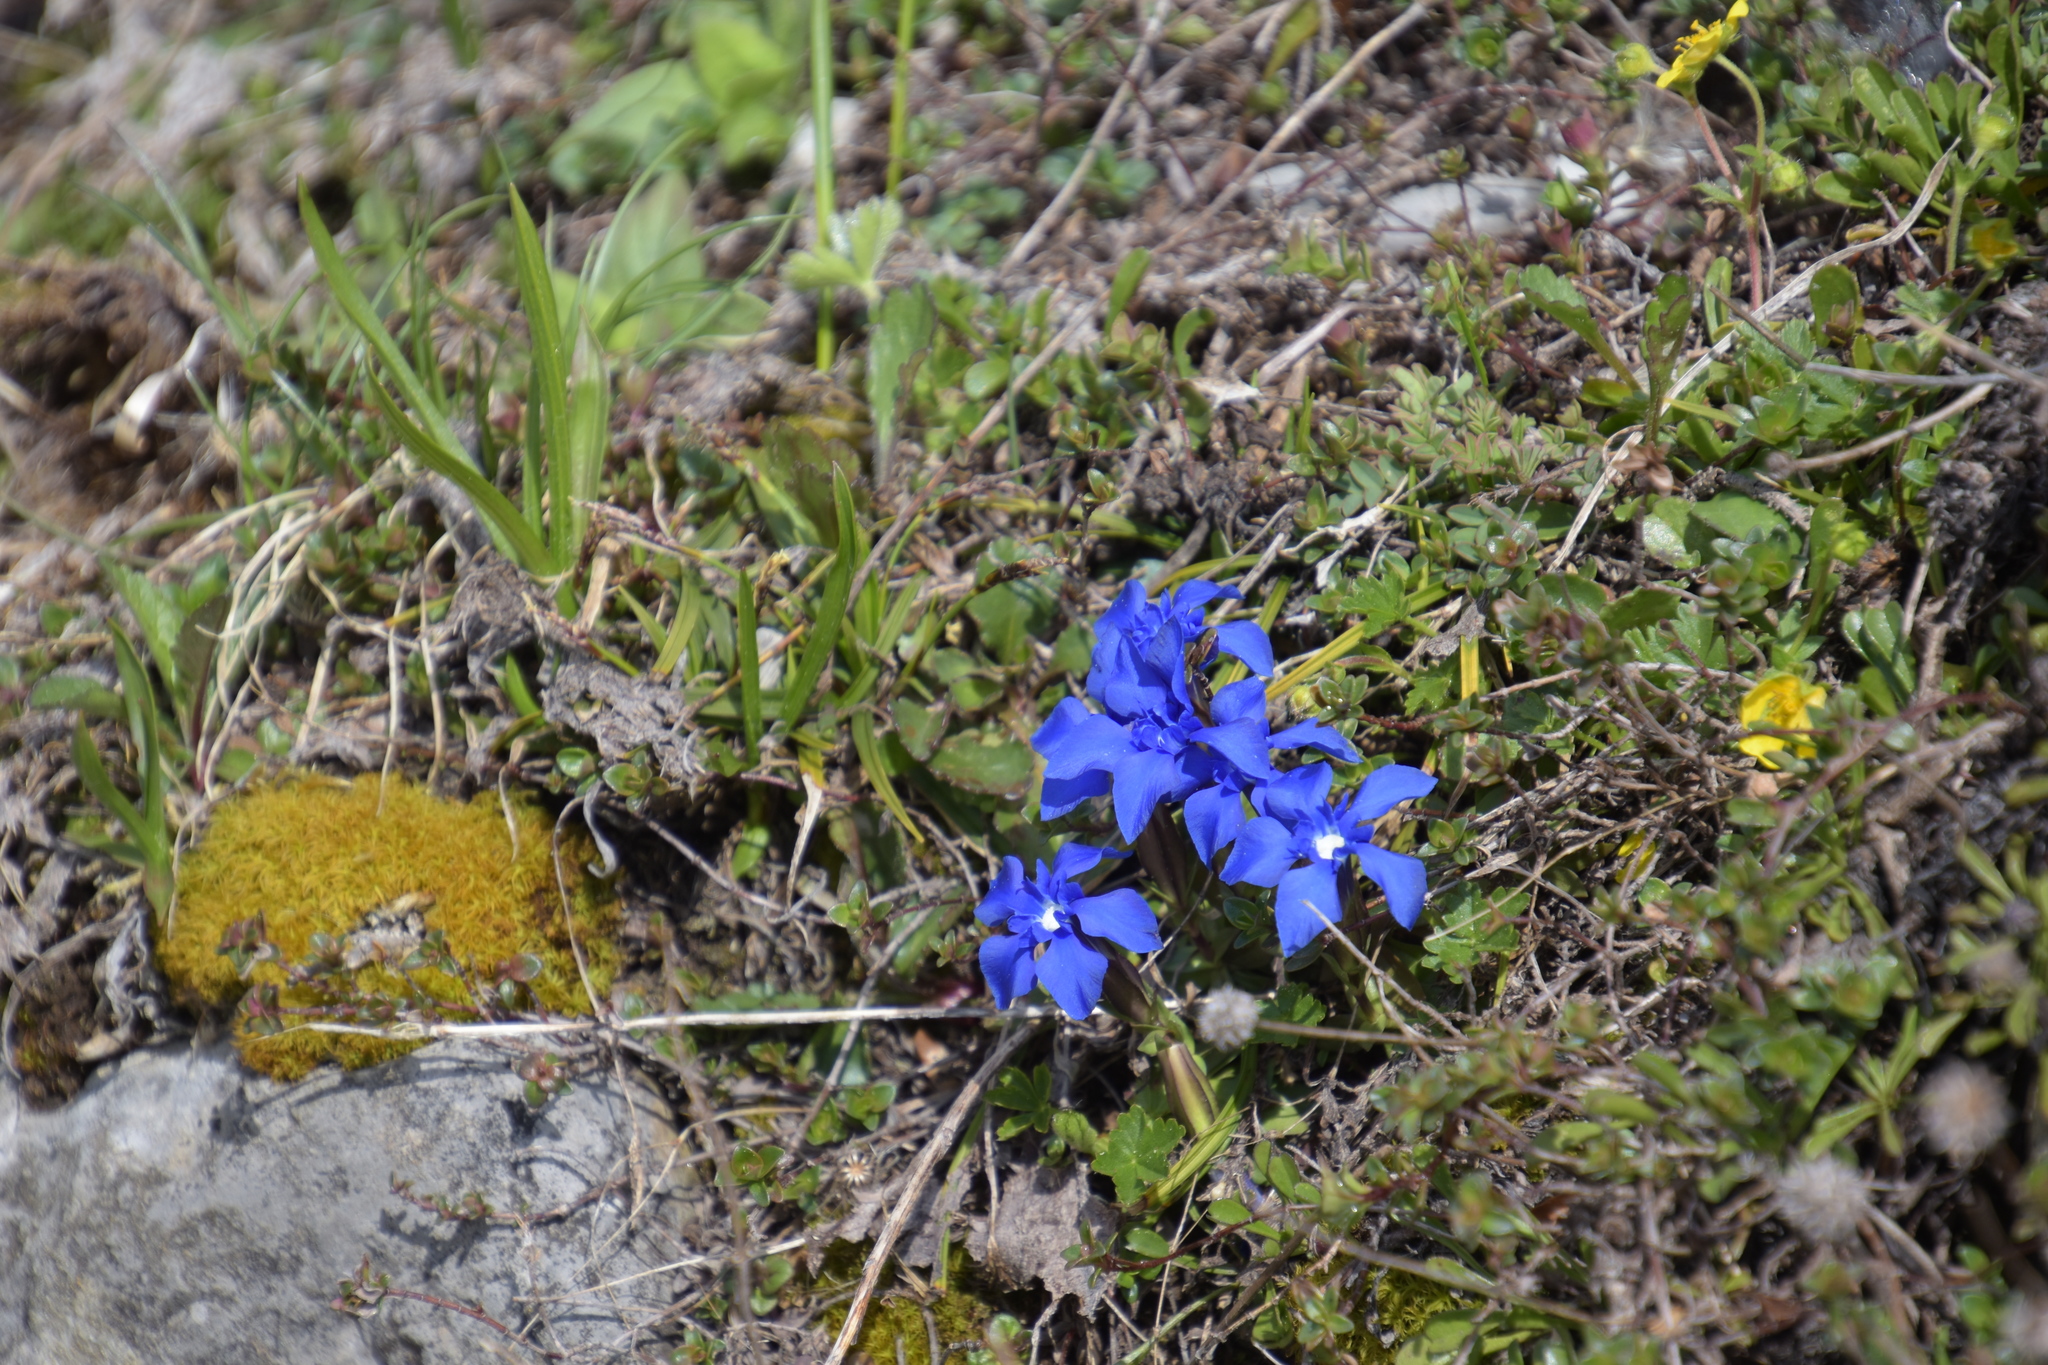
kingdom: Plantae
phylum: Tracheophyta
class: Magnoliopsida
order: Gentianales
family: Gentianaceae
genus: Gentiana
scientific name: Gentiana verna
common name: Spring gentian
